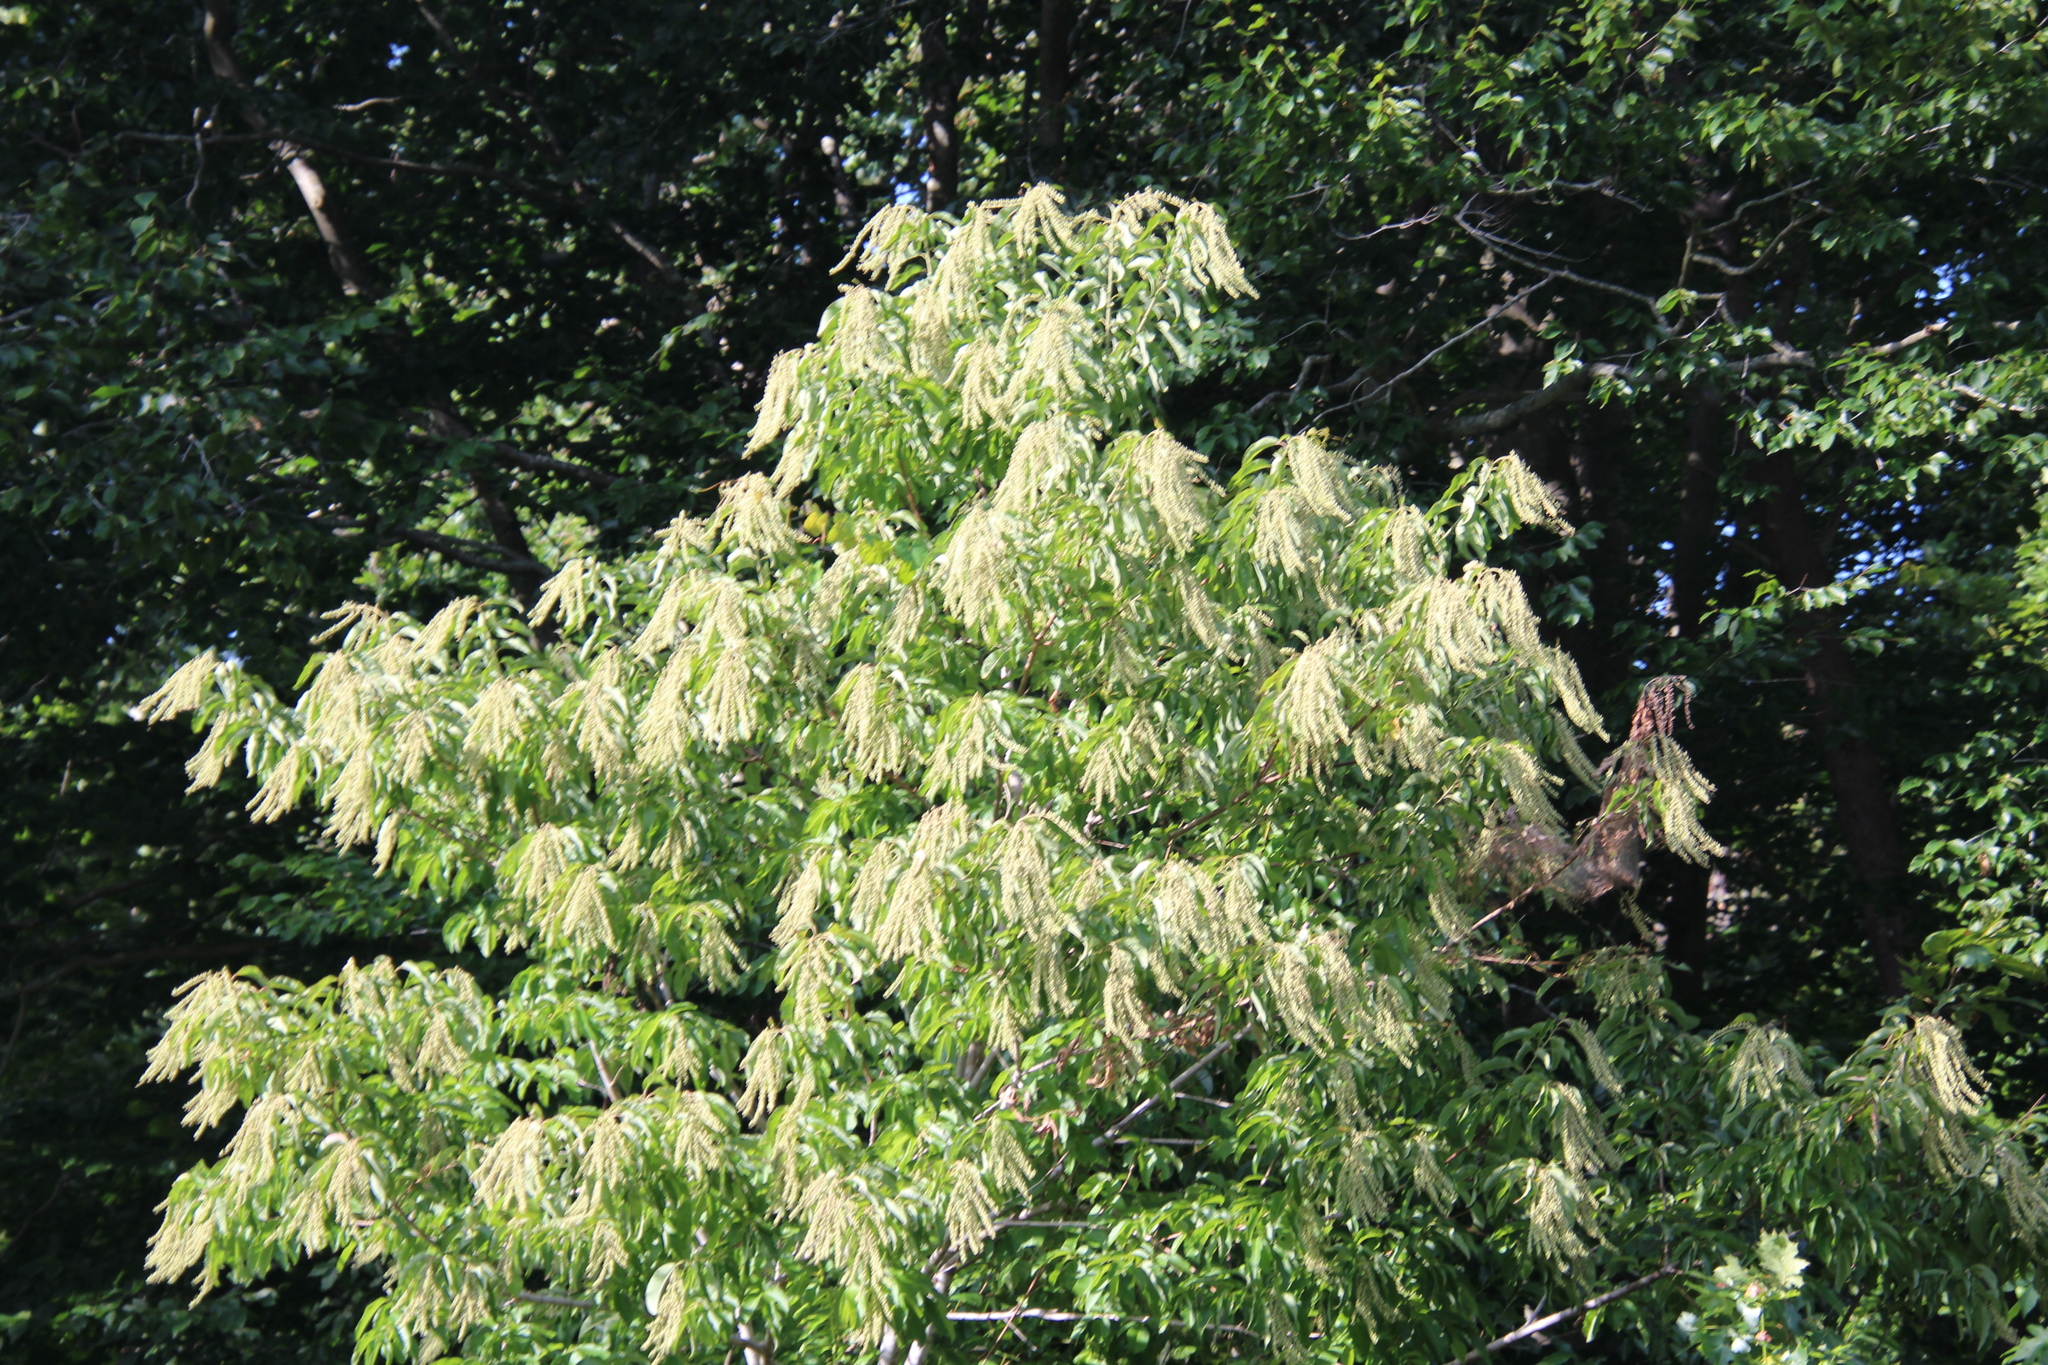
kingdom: Plantae
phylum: Tracheophyta
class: Magnoliopsida
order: Ericales
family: Ericaceae
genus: Oxydendrum
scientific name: Oxydendrum arboreum
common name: Sourwood
